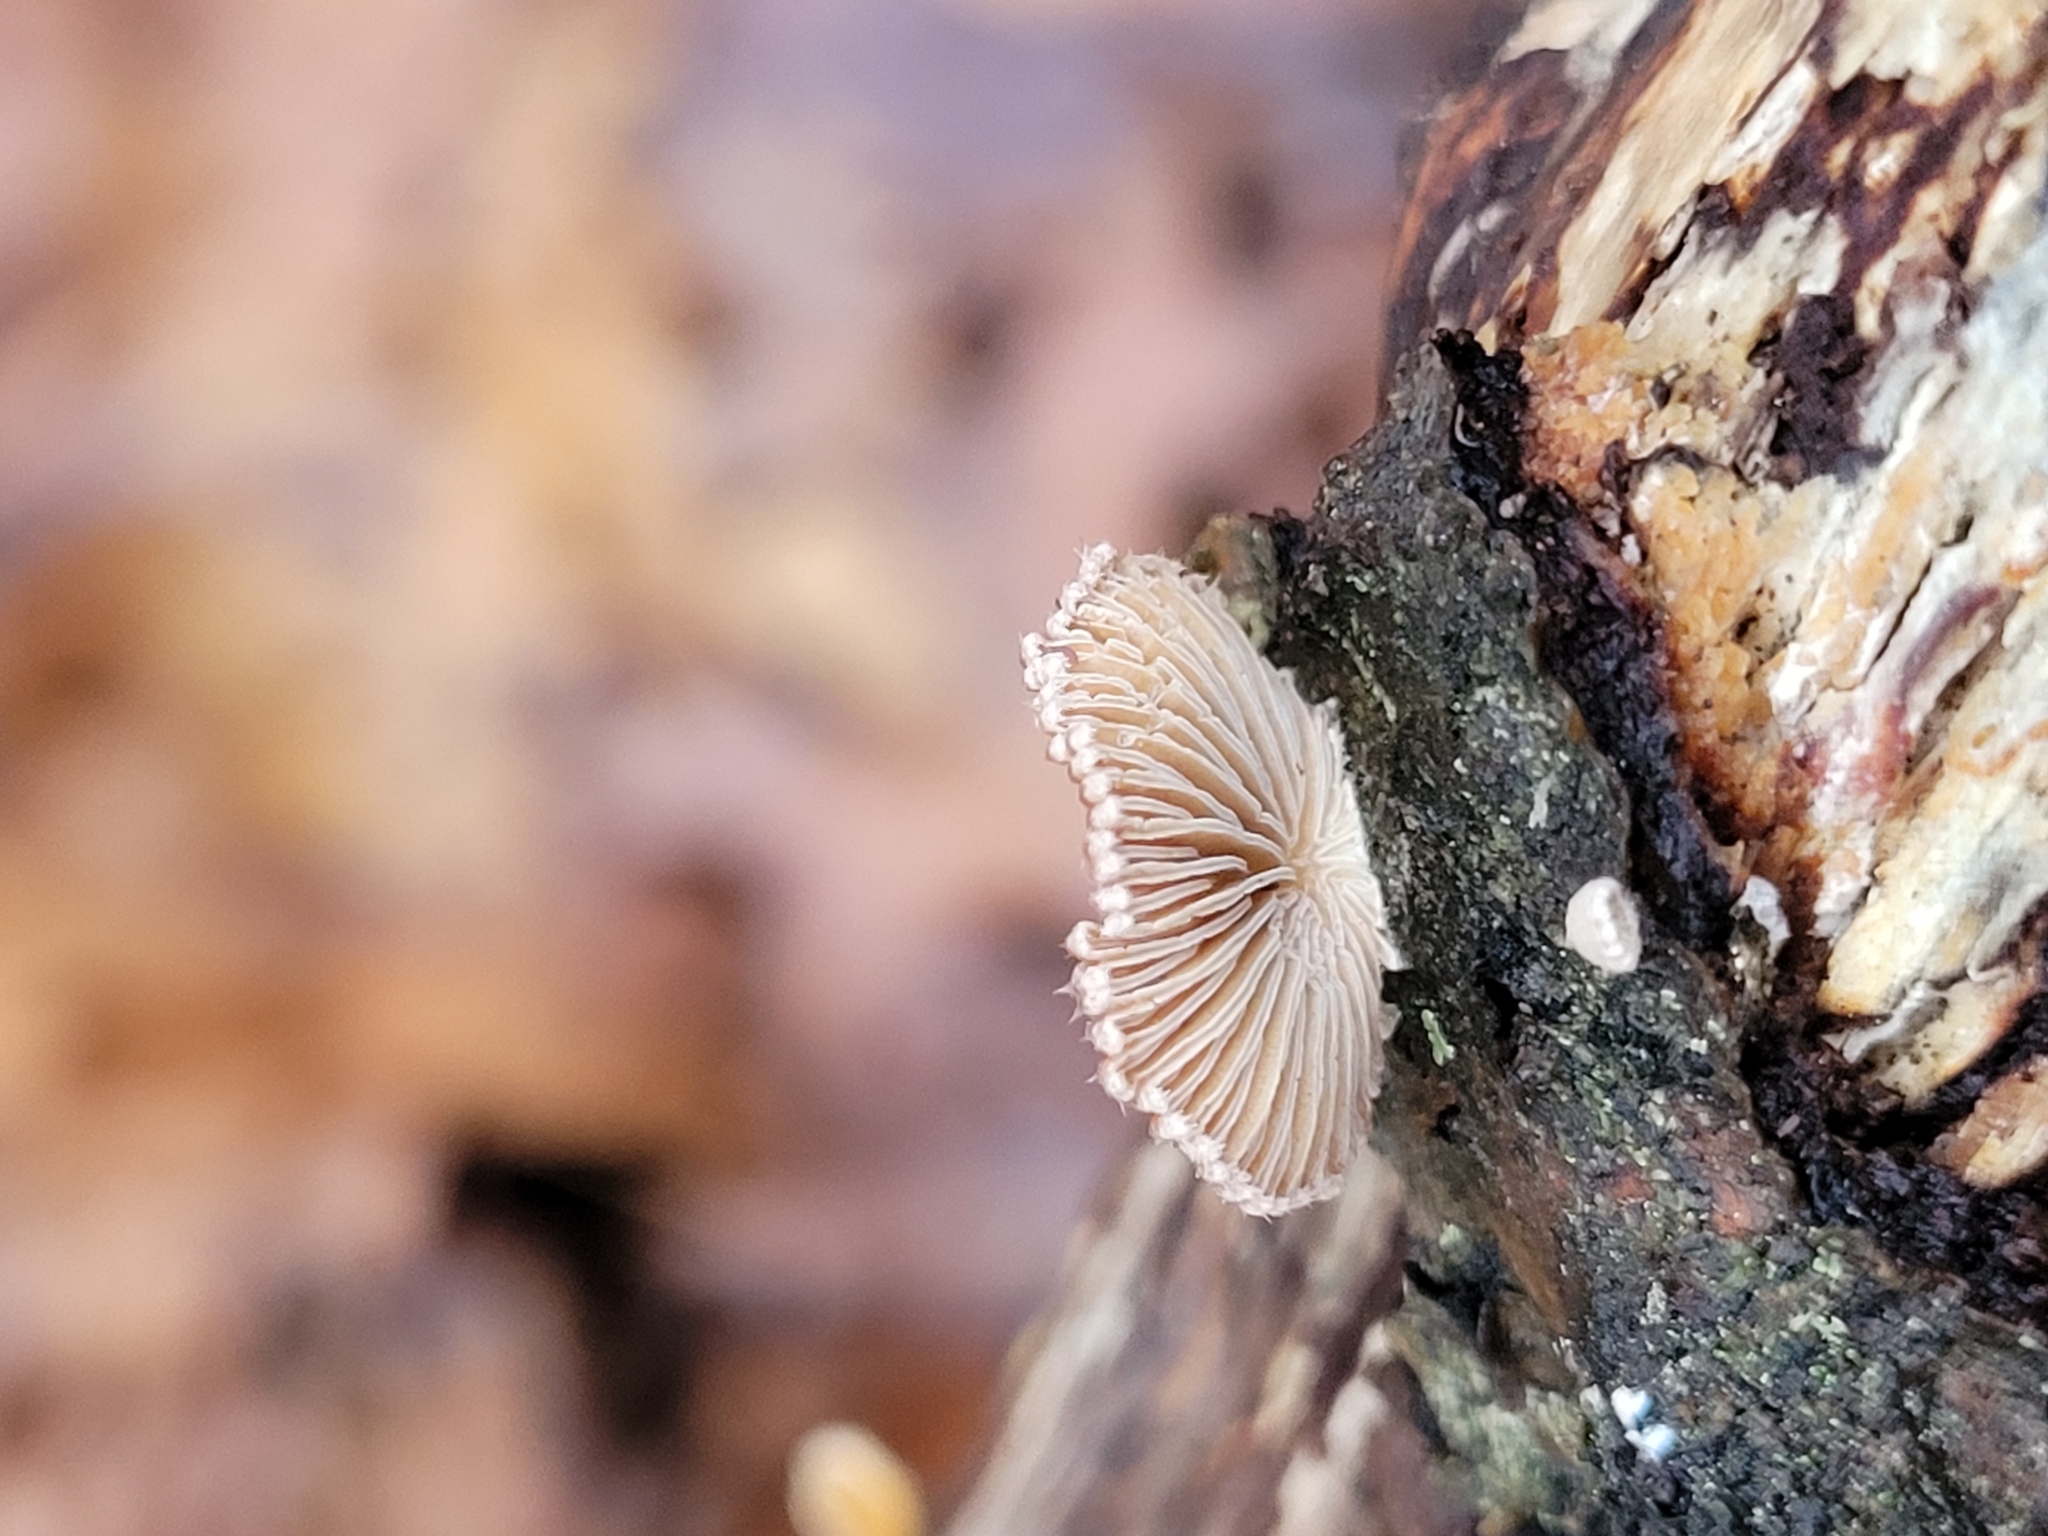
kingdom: Fungi
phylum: Basidiomycota
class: Agaricomycetes
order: Agaricales
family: Schizophyllaceae
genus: Schizophyllum
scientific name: Schizophyllum commune
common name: Common porecrust
